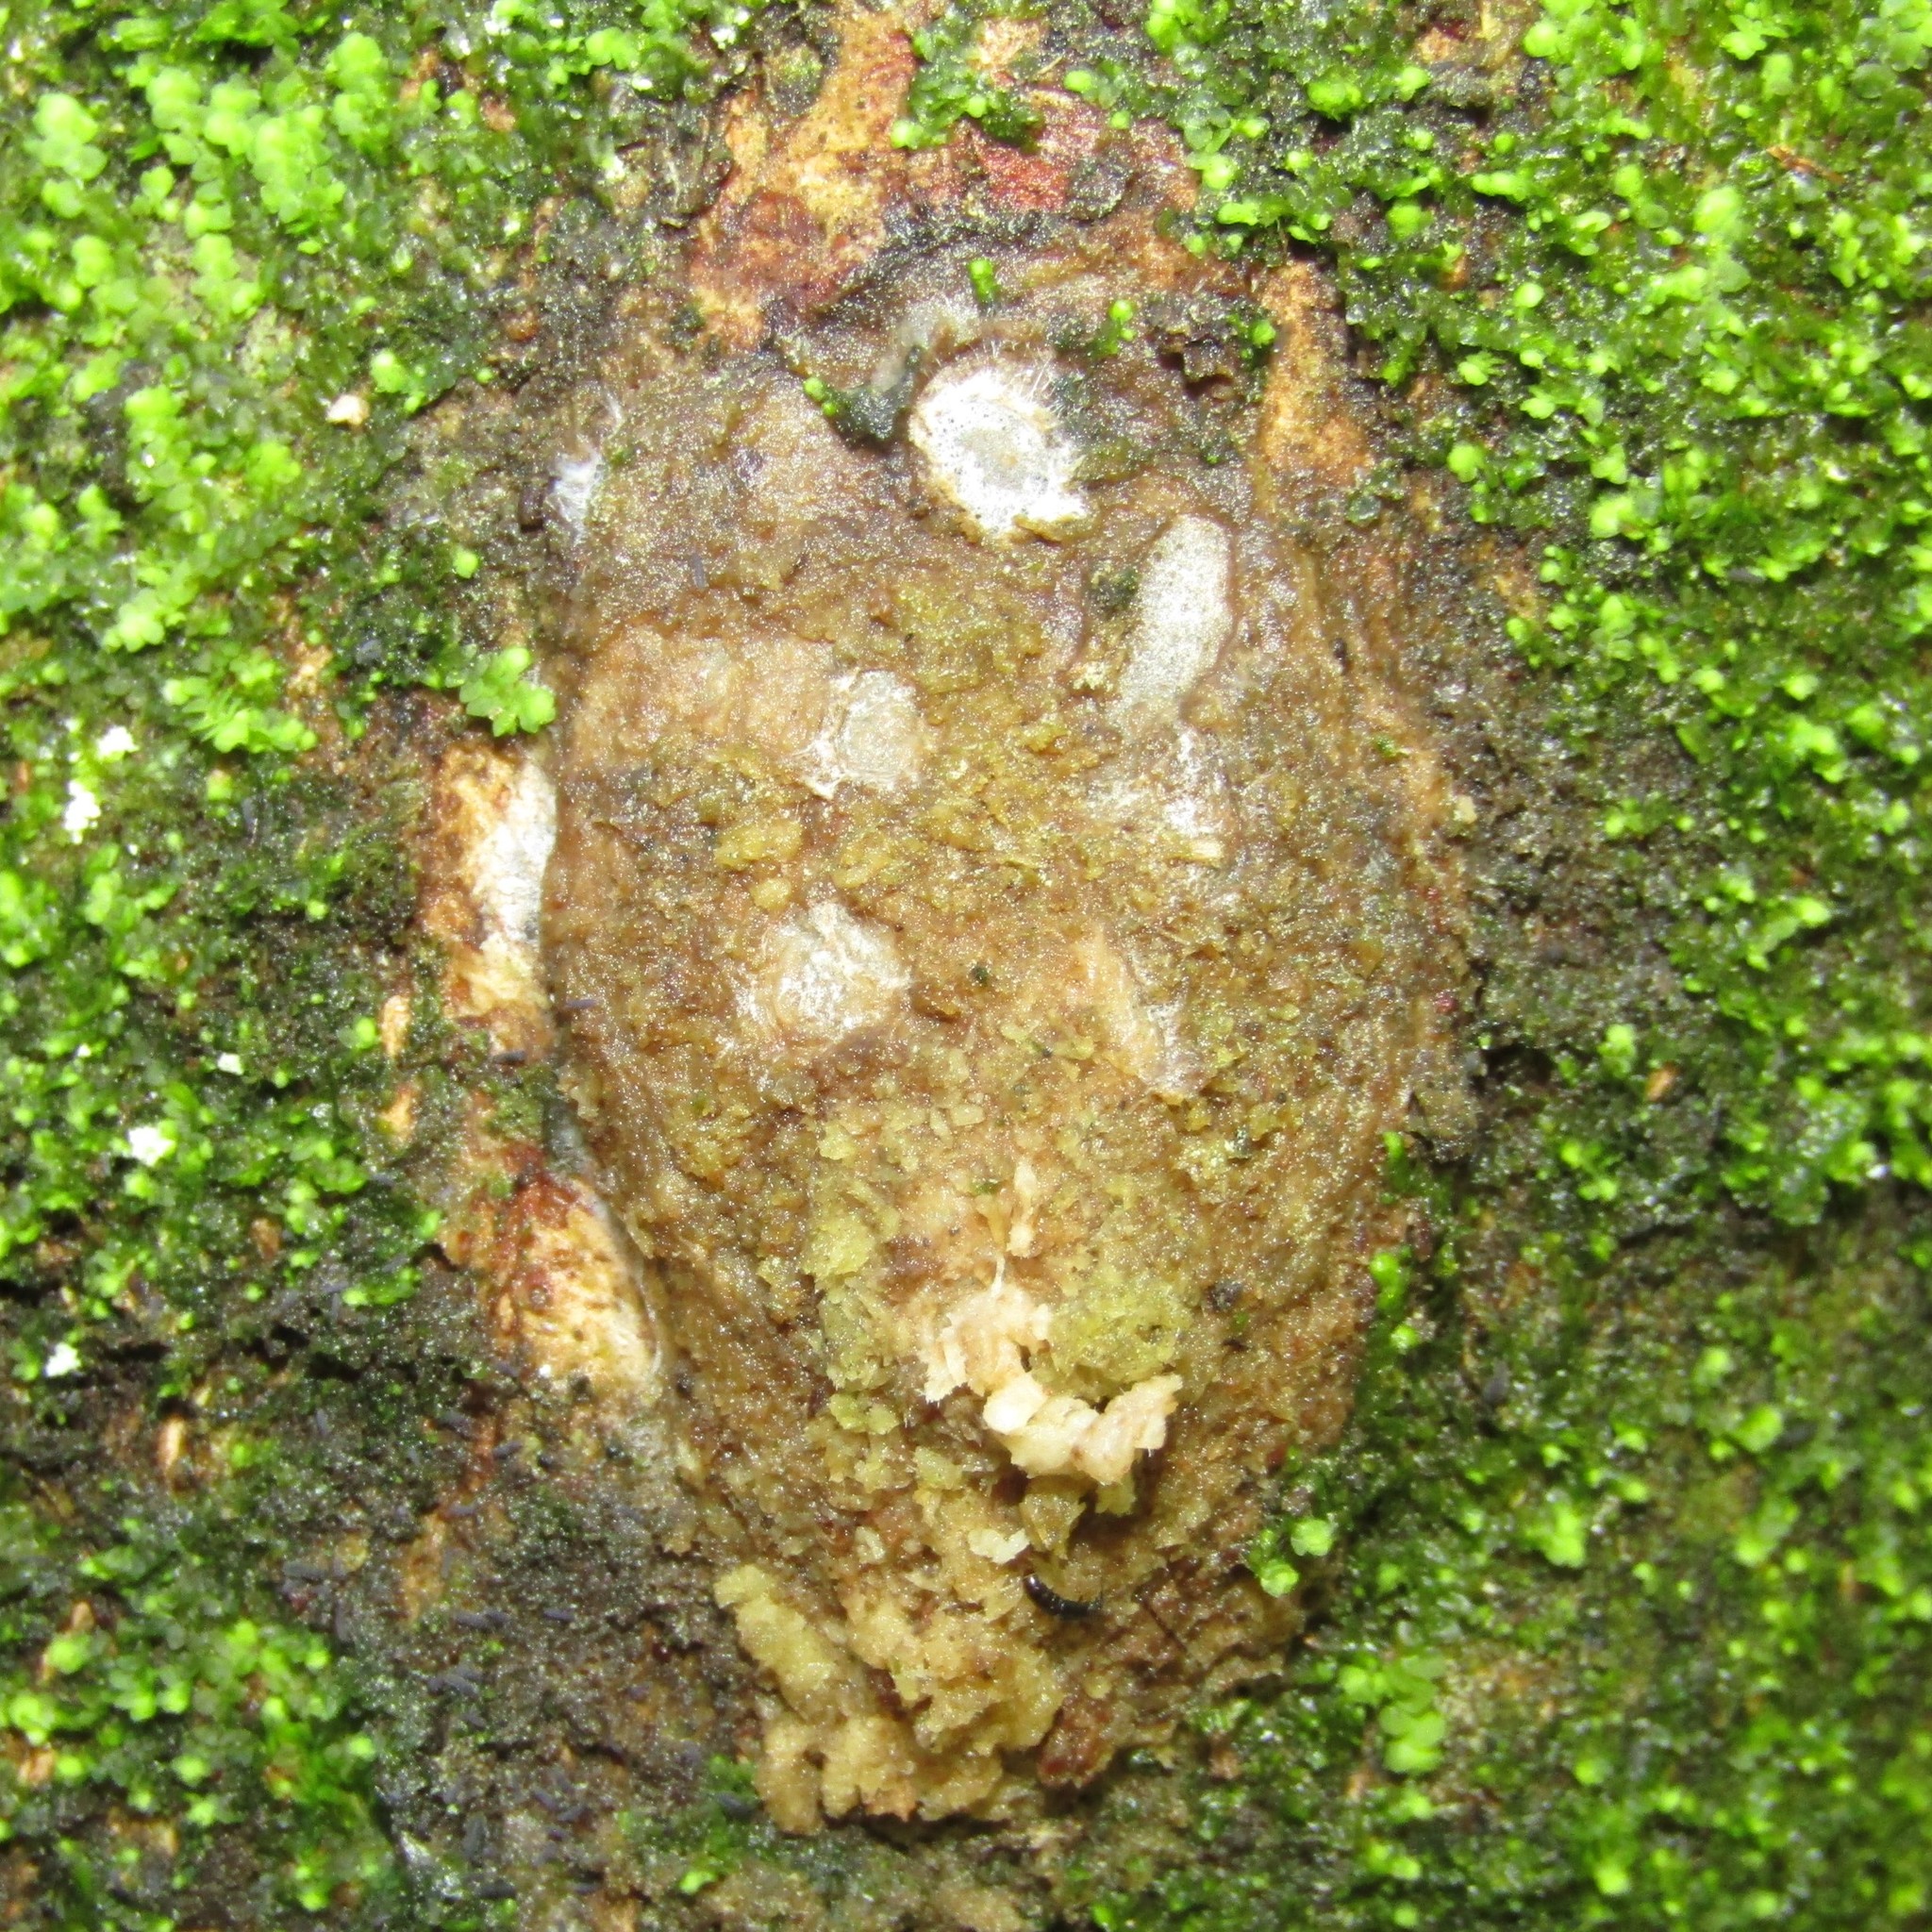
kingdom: Animalia
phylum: Arthropoda
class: Insecta
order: Lepidoptera
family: Hepialidae
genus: Aenetus
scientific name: Aenetus virescens
